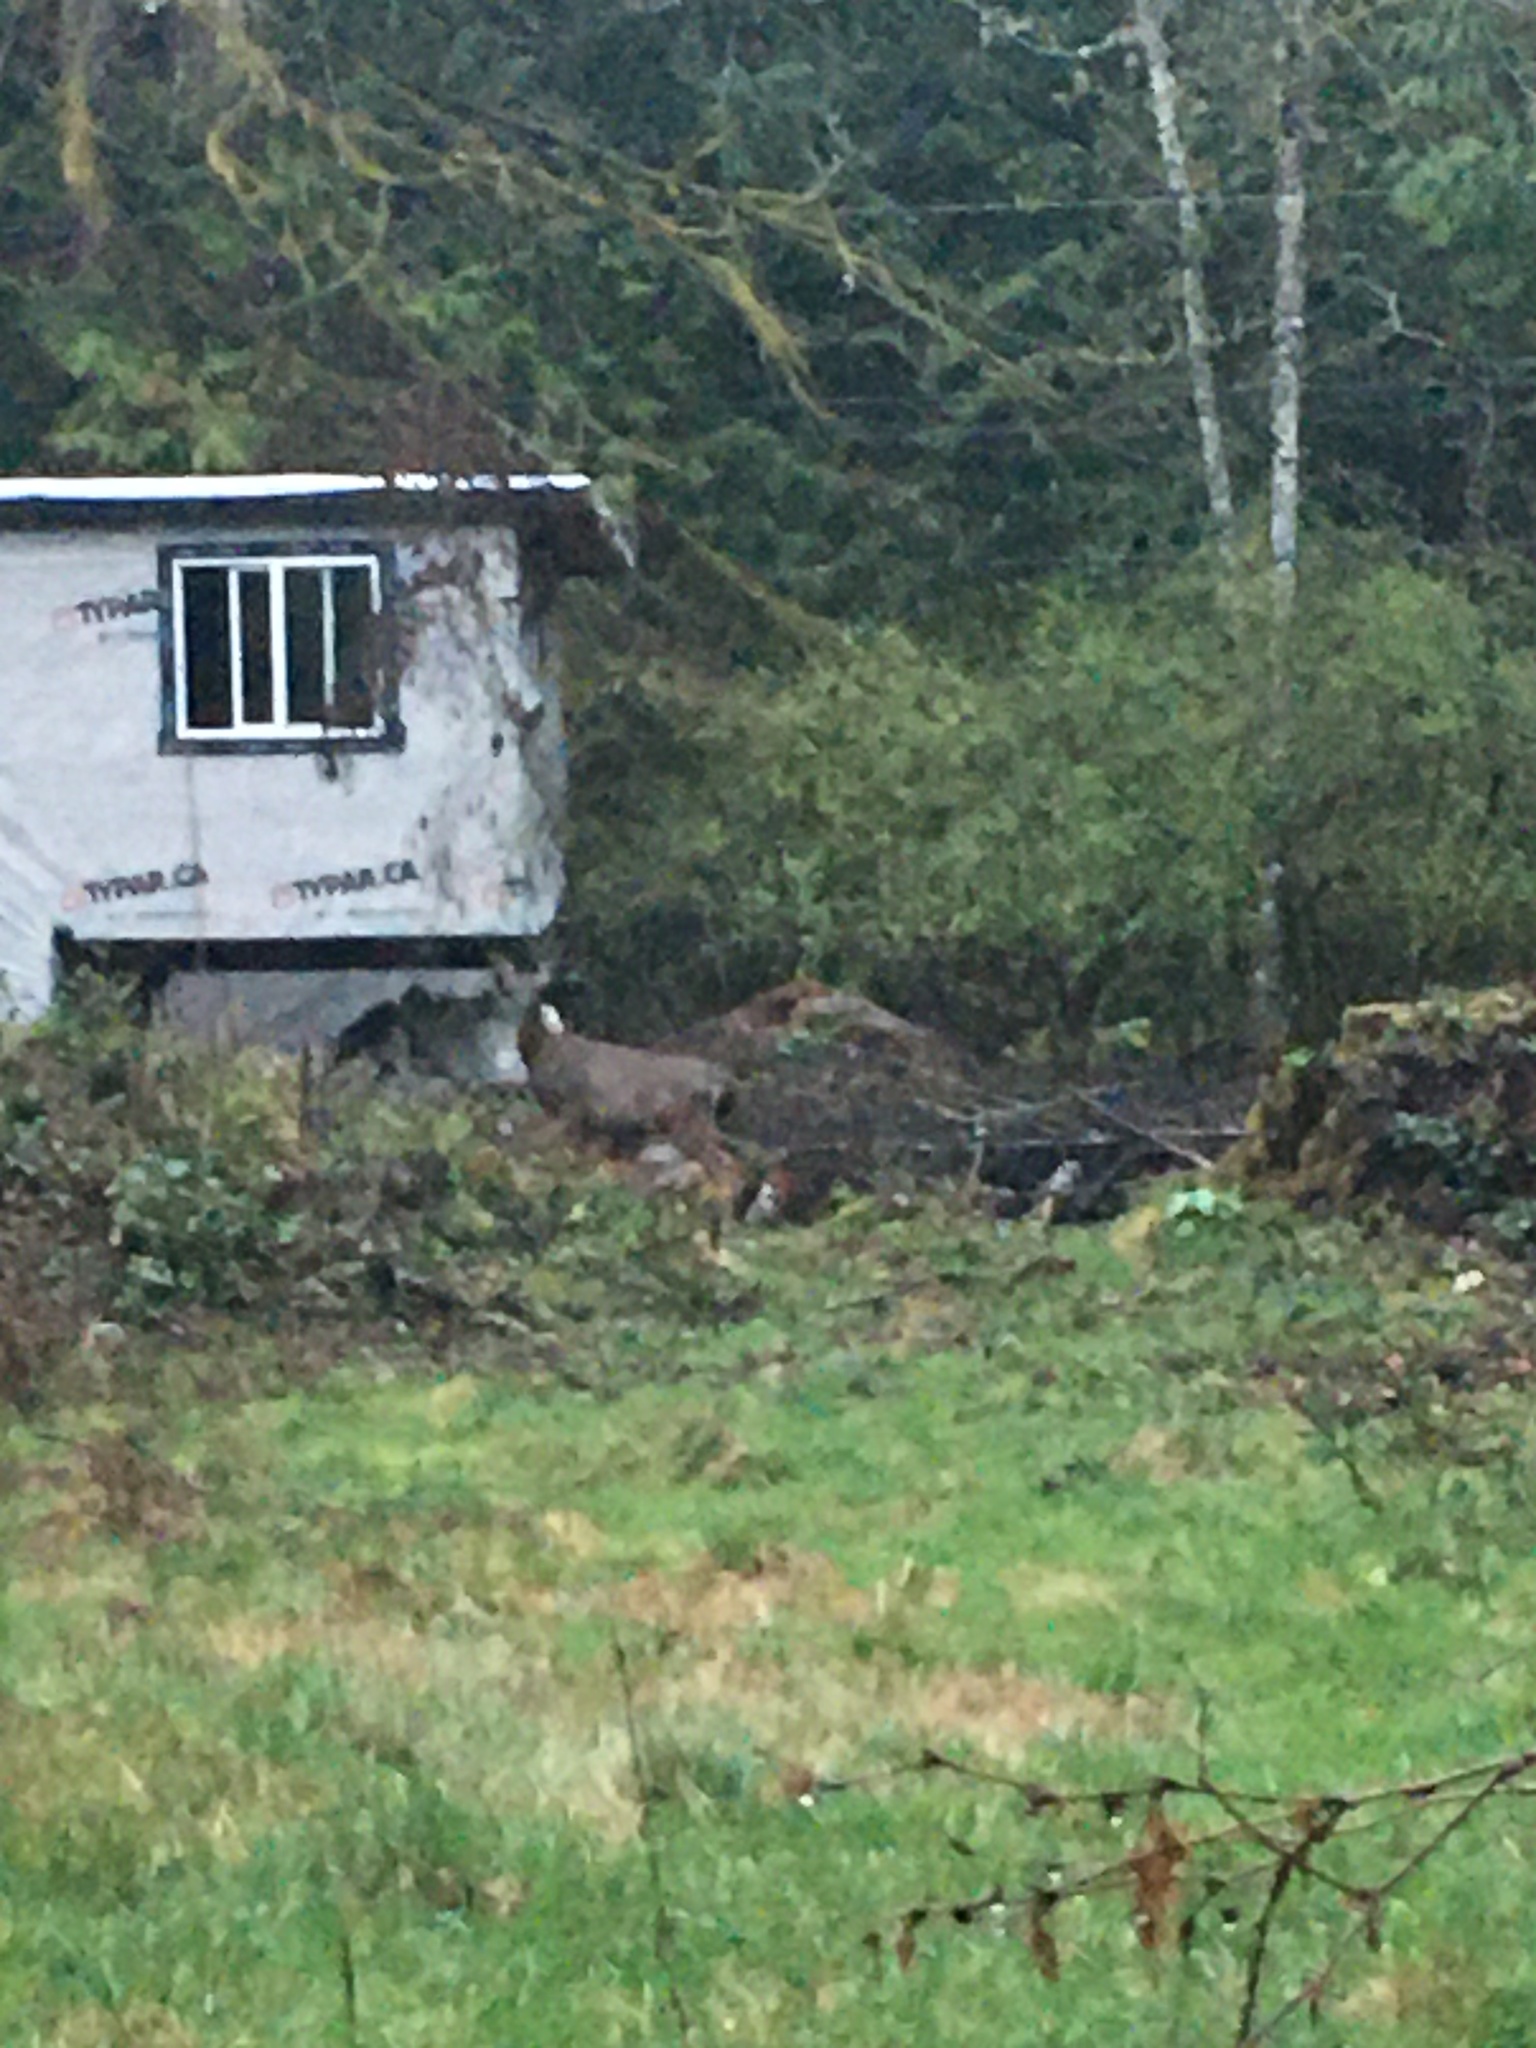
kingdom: Animalia
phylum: Chordata
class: Mammalia
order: Artiodactyla
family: Cervidae
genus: Odocoileus
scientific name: Odocoileus hemionus
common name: Mule deer
